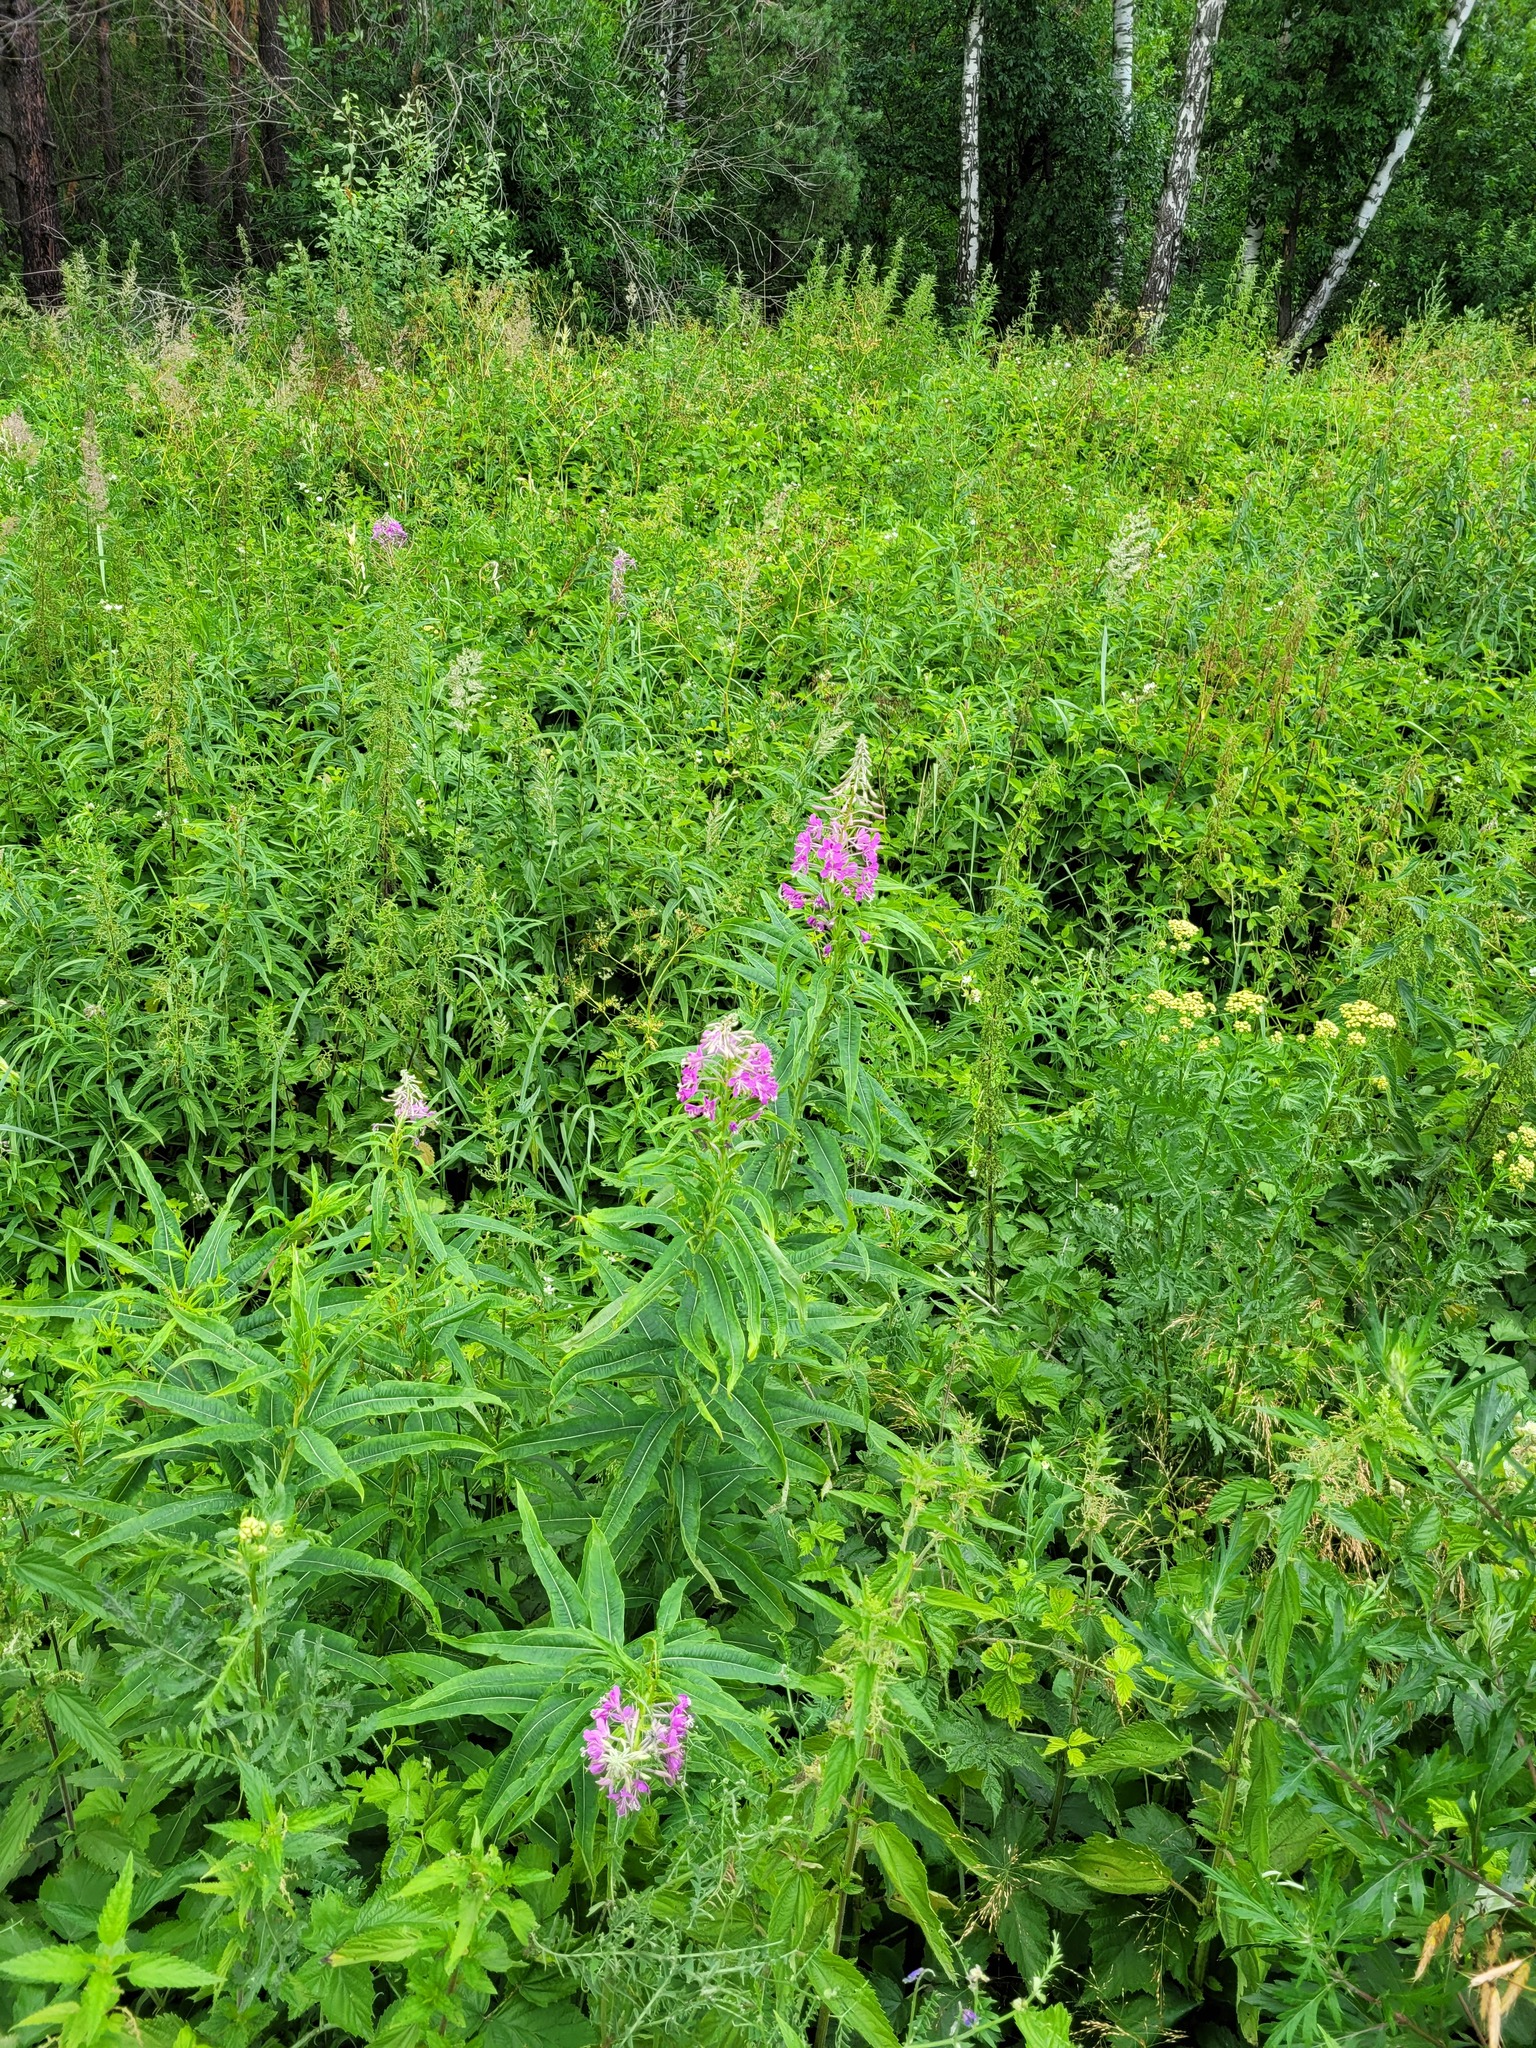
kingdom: Plantae
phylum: Tracheophyta
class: Magnoliopsida
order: Myrtales
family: Onagraceae
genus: Chamaenerion
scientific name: Chamaenerion angustifolium
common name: Fireweed
